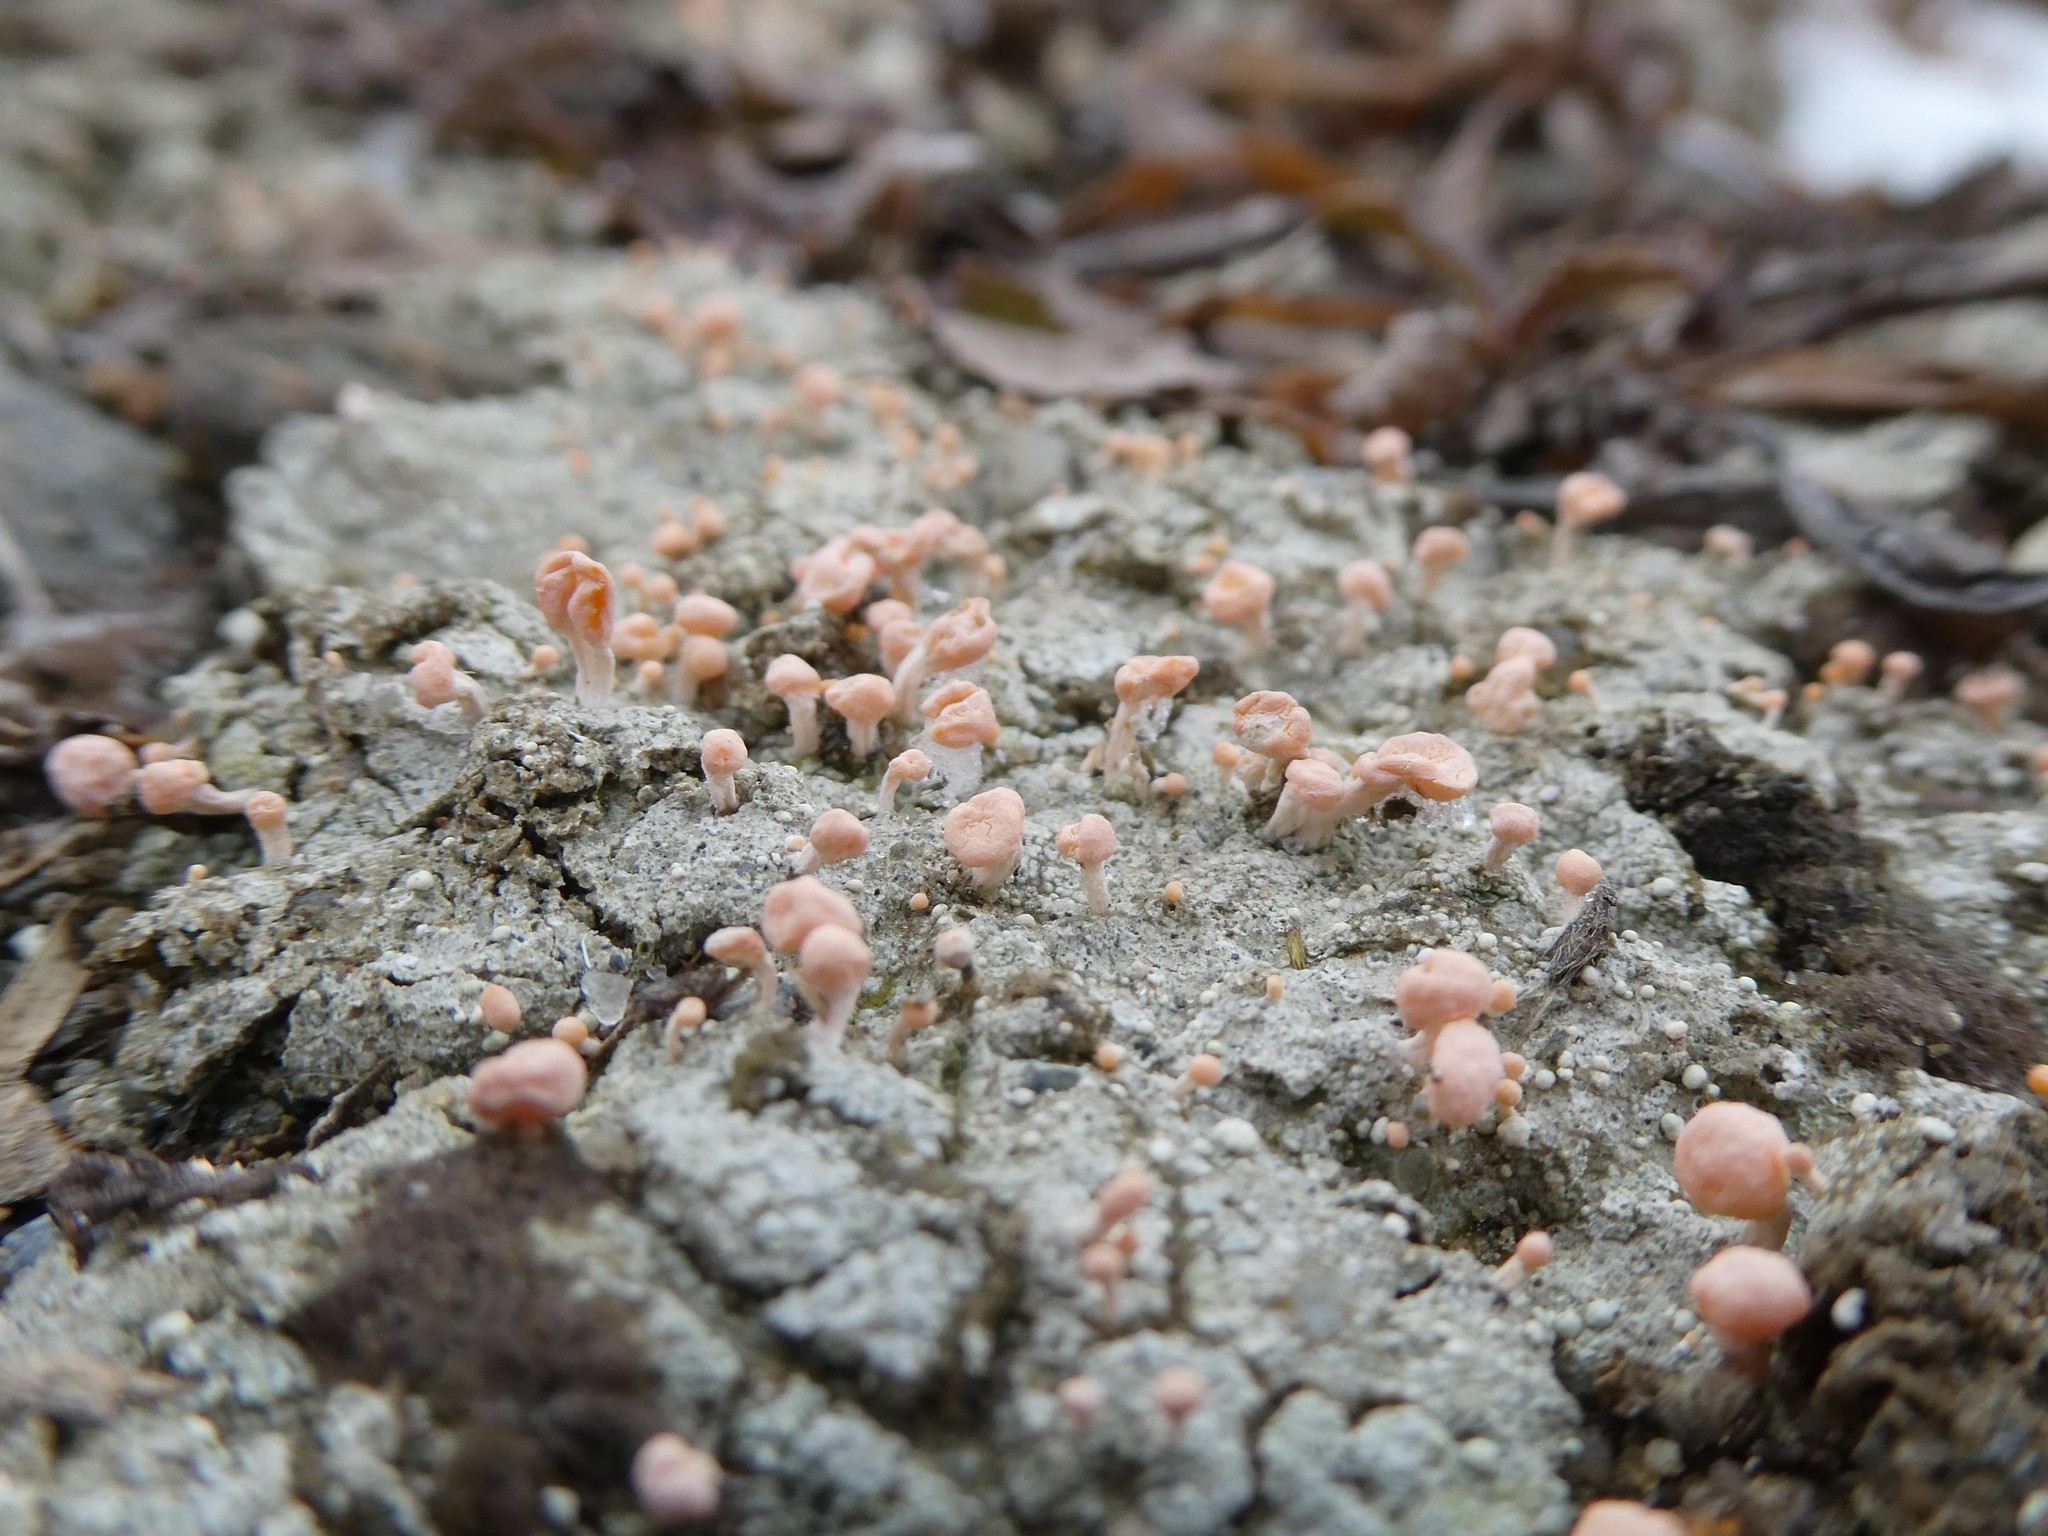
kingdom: Fungi
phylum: Ascomycota
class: Lecanoromycetes
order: Pertusariales
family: Icmadophilaceae
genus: Dibaeis
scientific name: Dibaeis baeomyces
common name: Pink earth lichen
